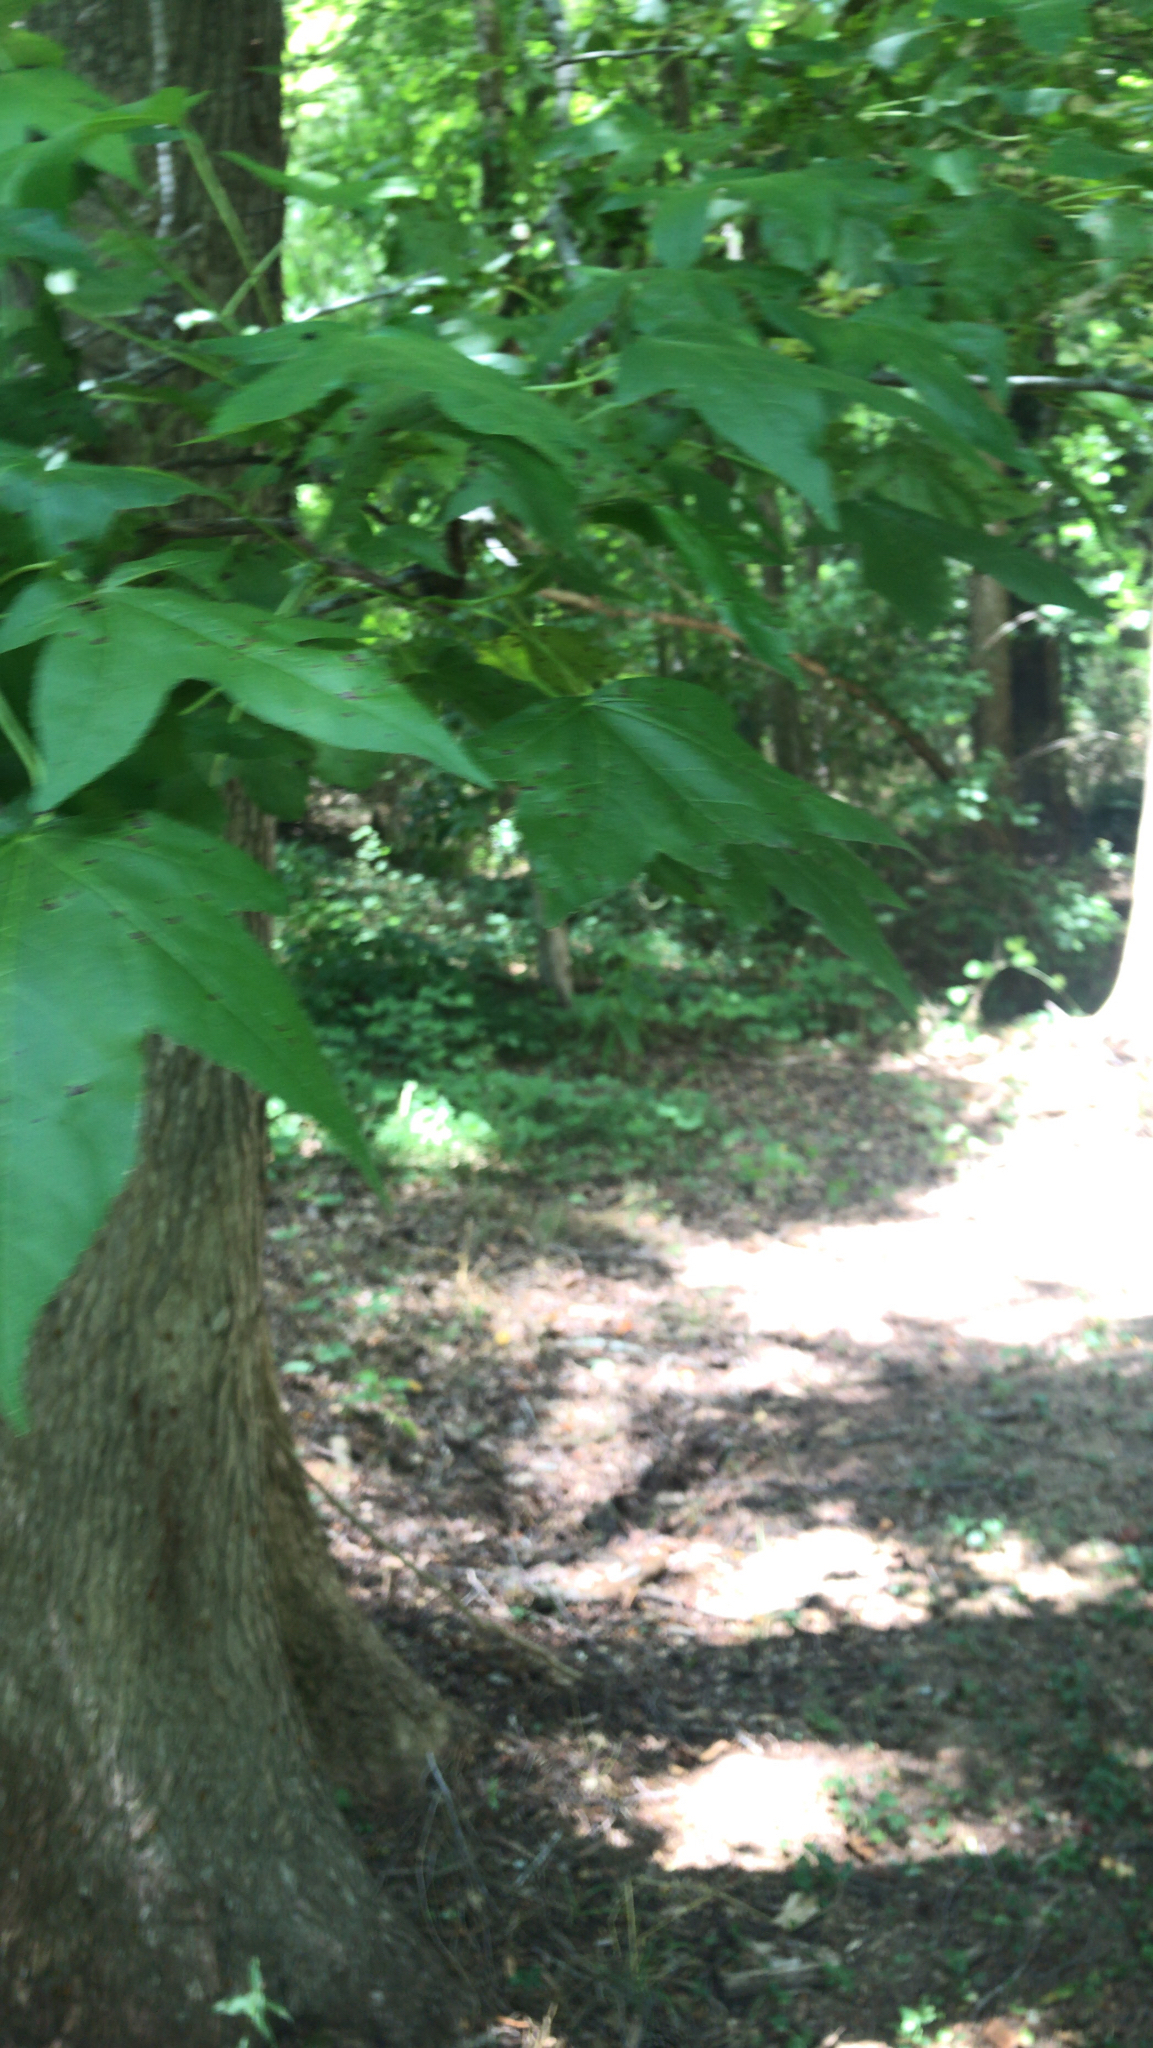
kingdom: Plantae
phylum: Tracheophyta
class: Magnoliopsida
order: Saxifragales
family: Altingiaceae
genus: Liquidambar
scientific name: Liquidambar styraciflua
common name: Sweet gum
